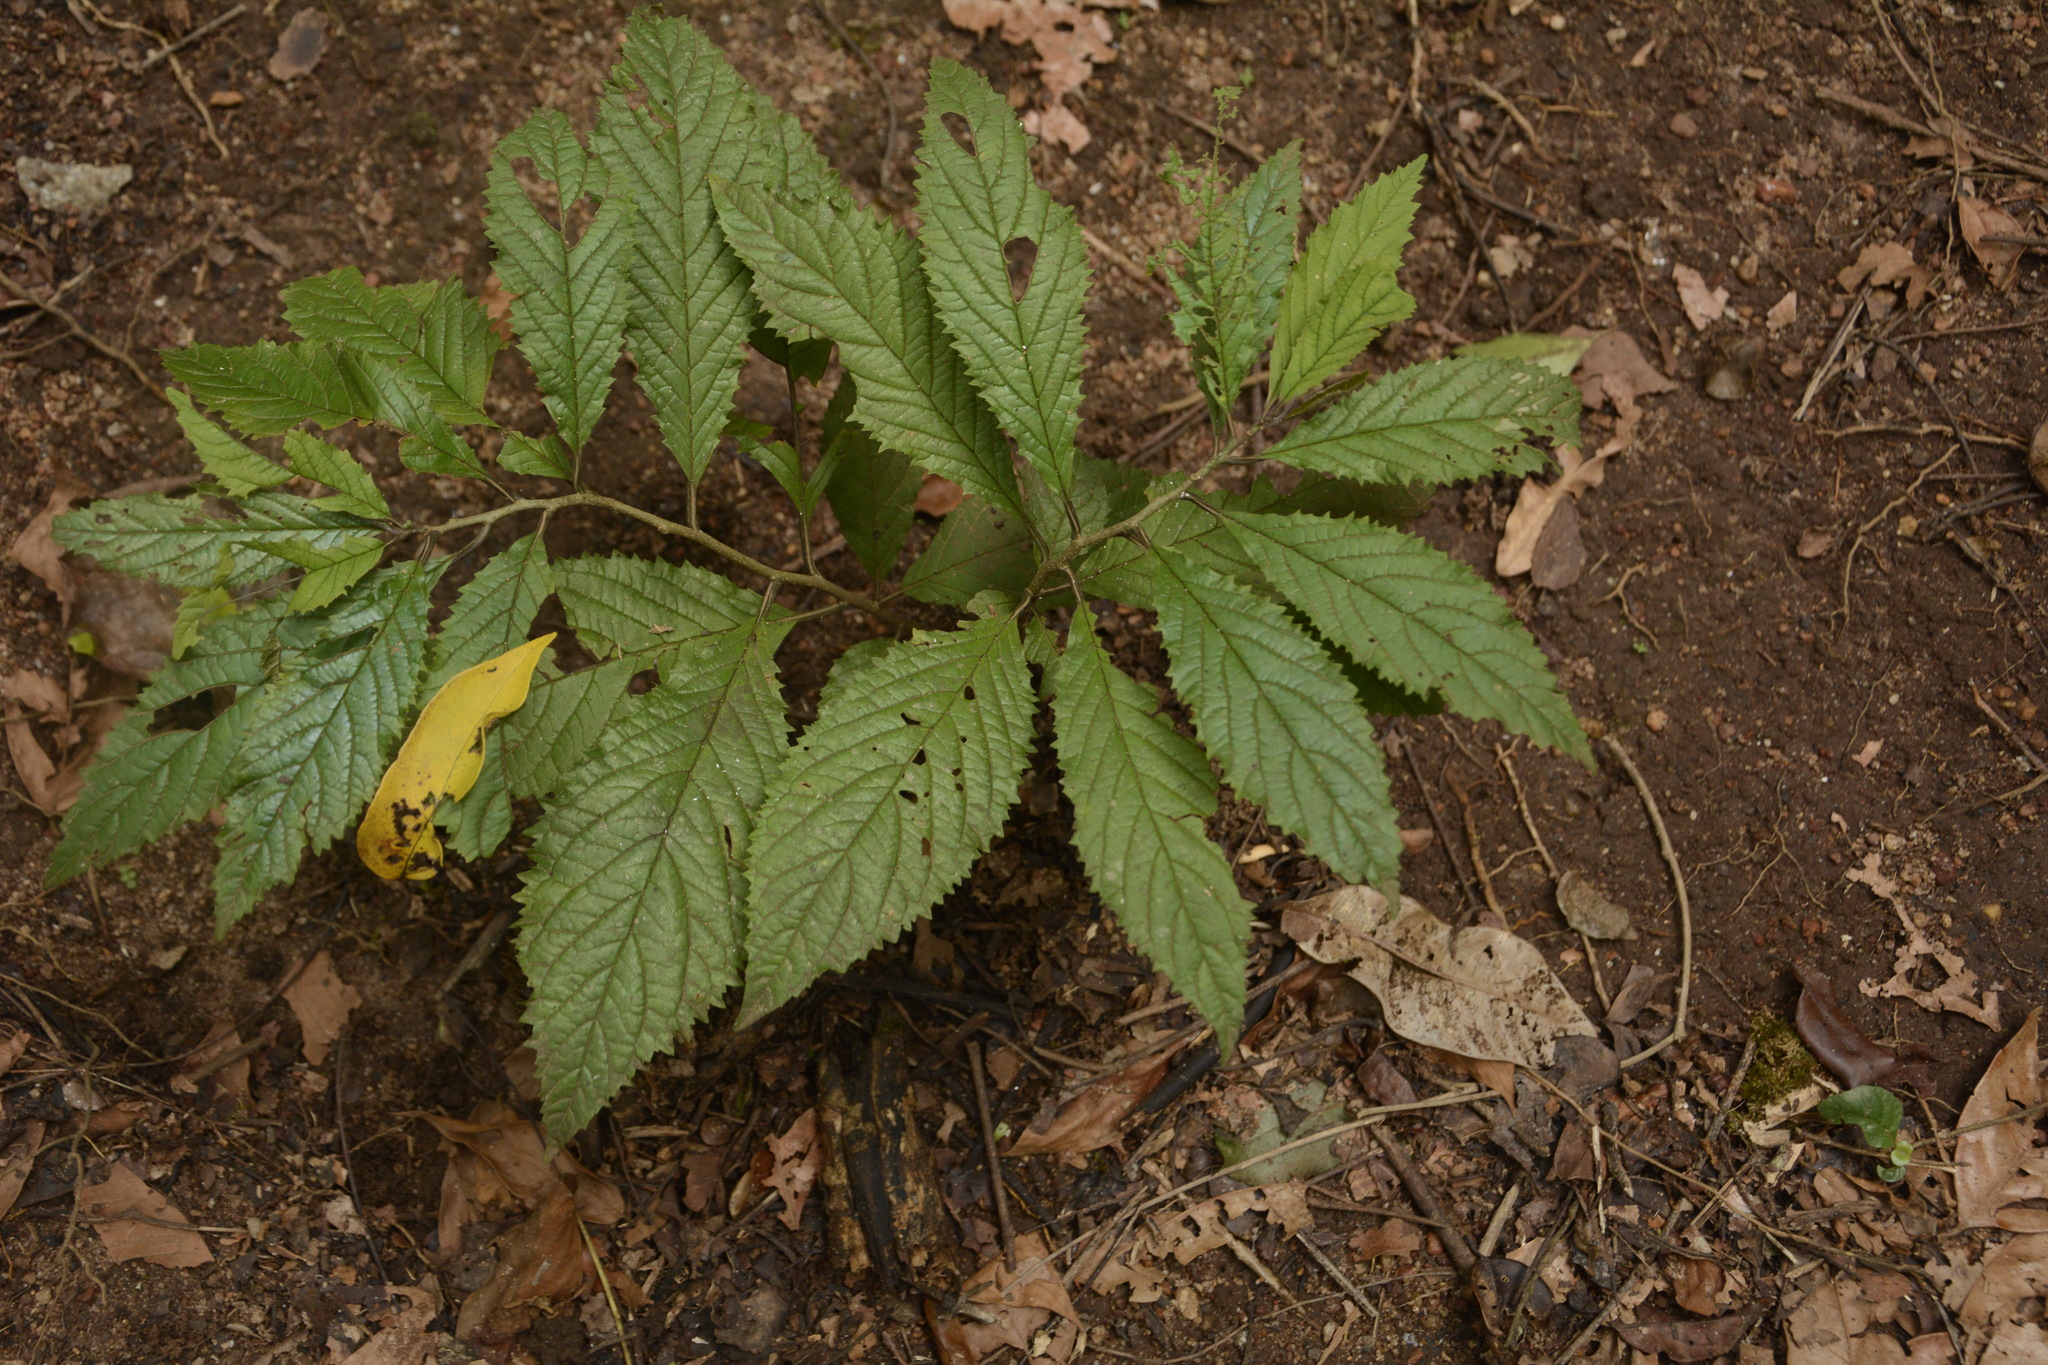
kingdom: Plantae
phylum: Tracheophyta
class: Magnoliopsida
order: Ericales
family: Primulaceae
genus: Embelia
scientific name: Embelia tsjeriam-cottam
